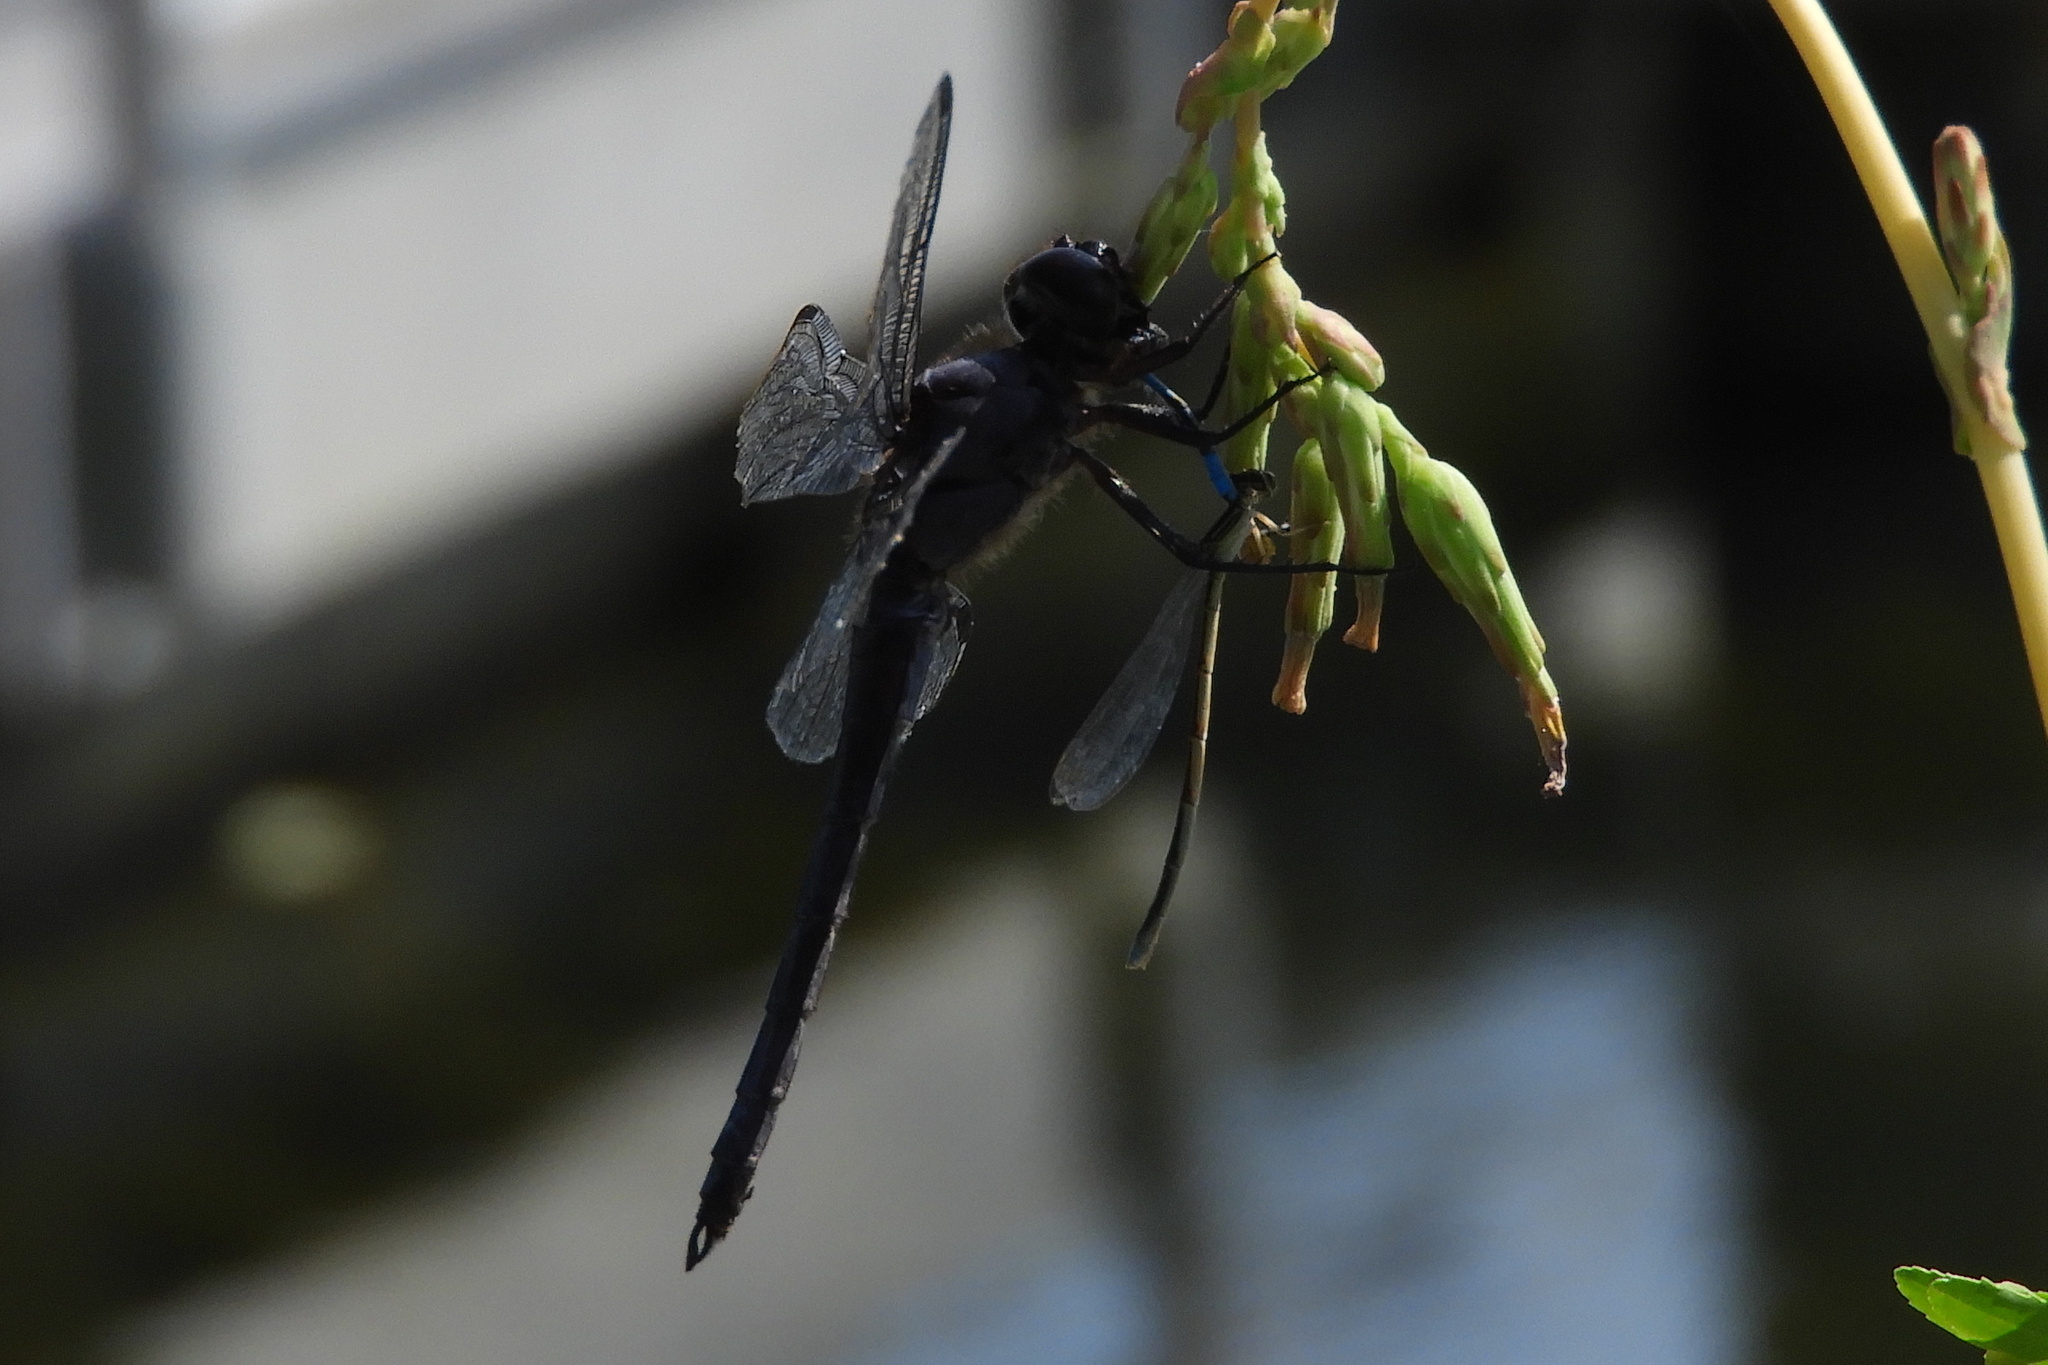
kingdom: Animalia
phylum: Arthropoda
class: Insecta
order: Odonata
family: Libellulidae
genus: Libellula
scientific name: Libellula incesta
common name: Slaty skimmer
